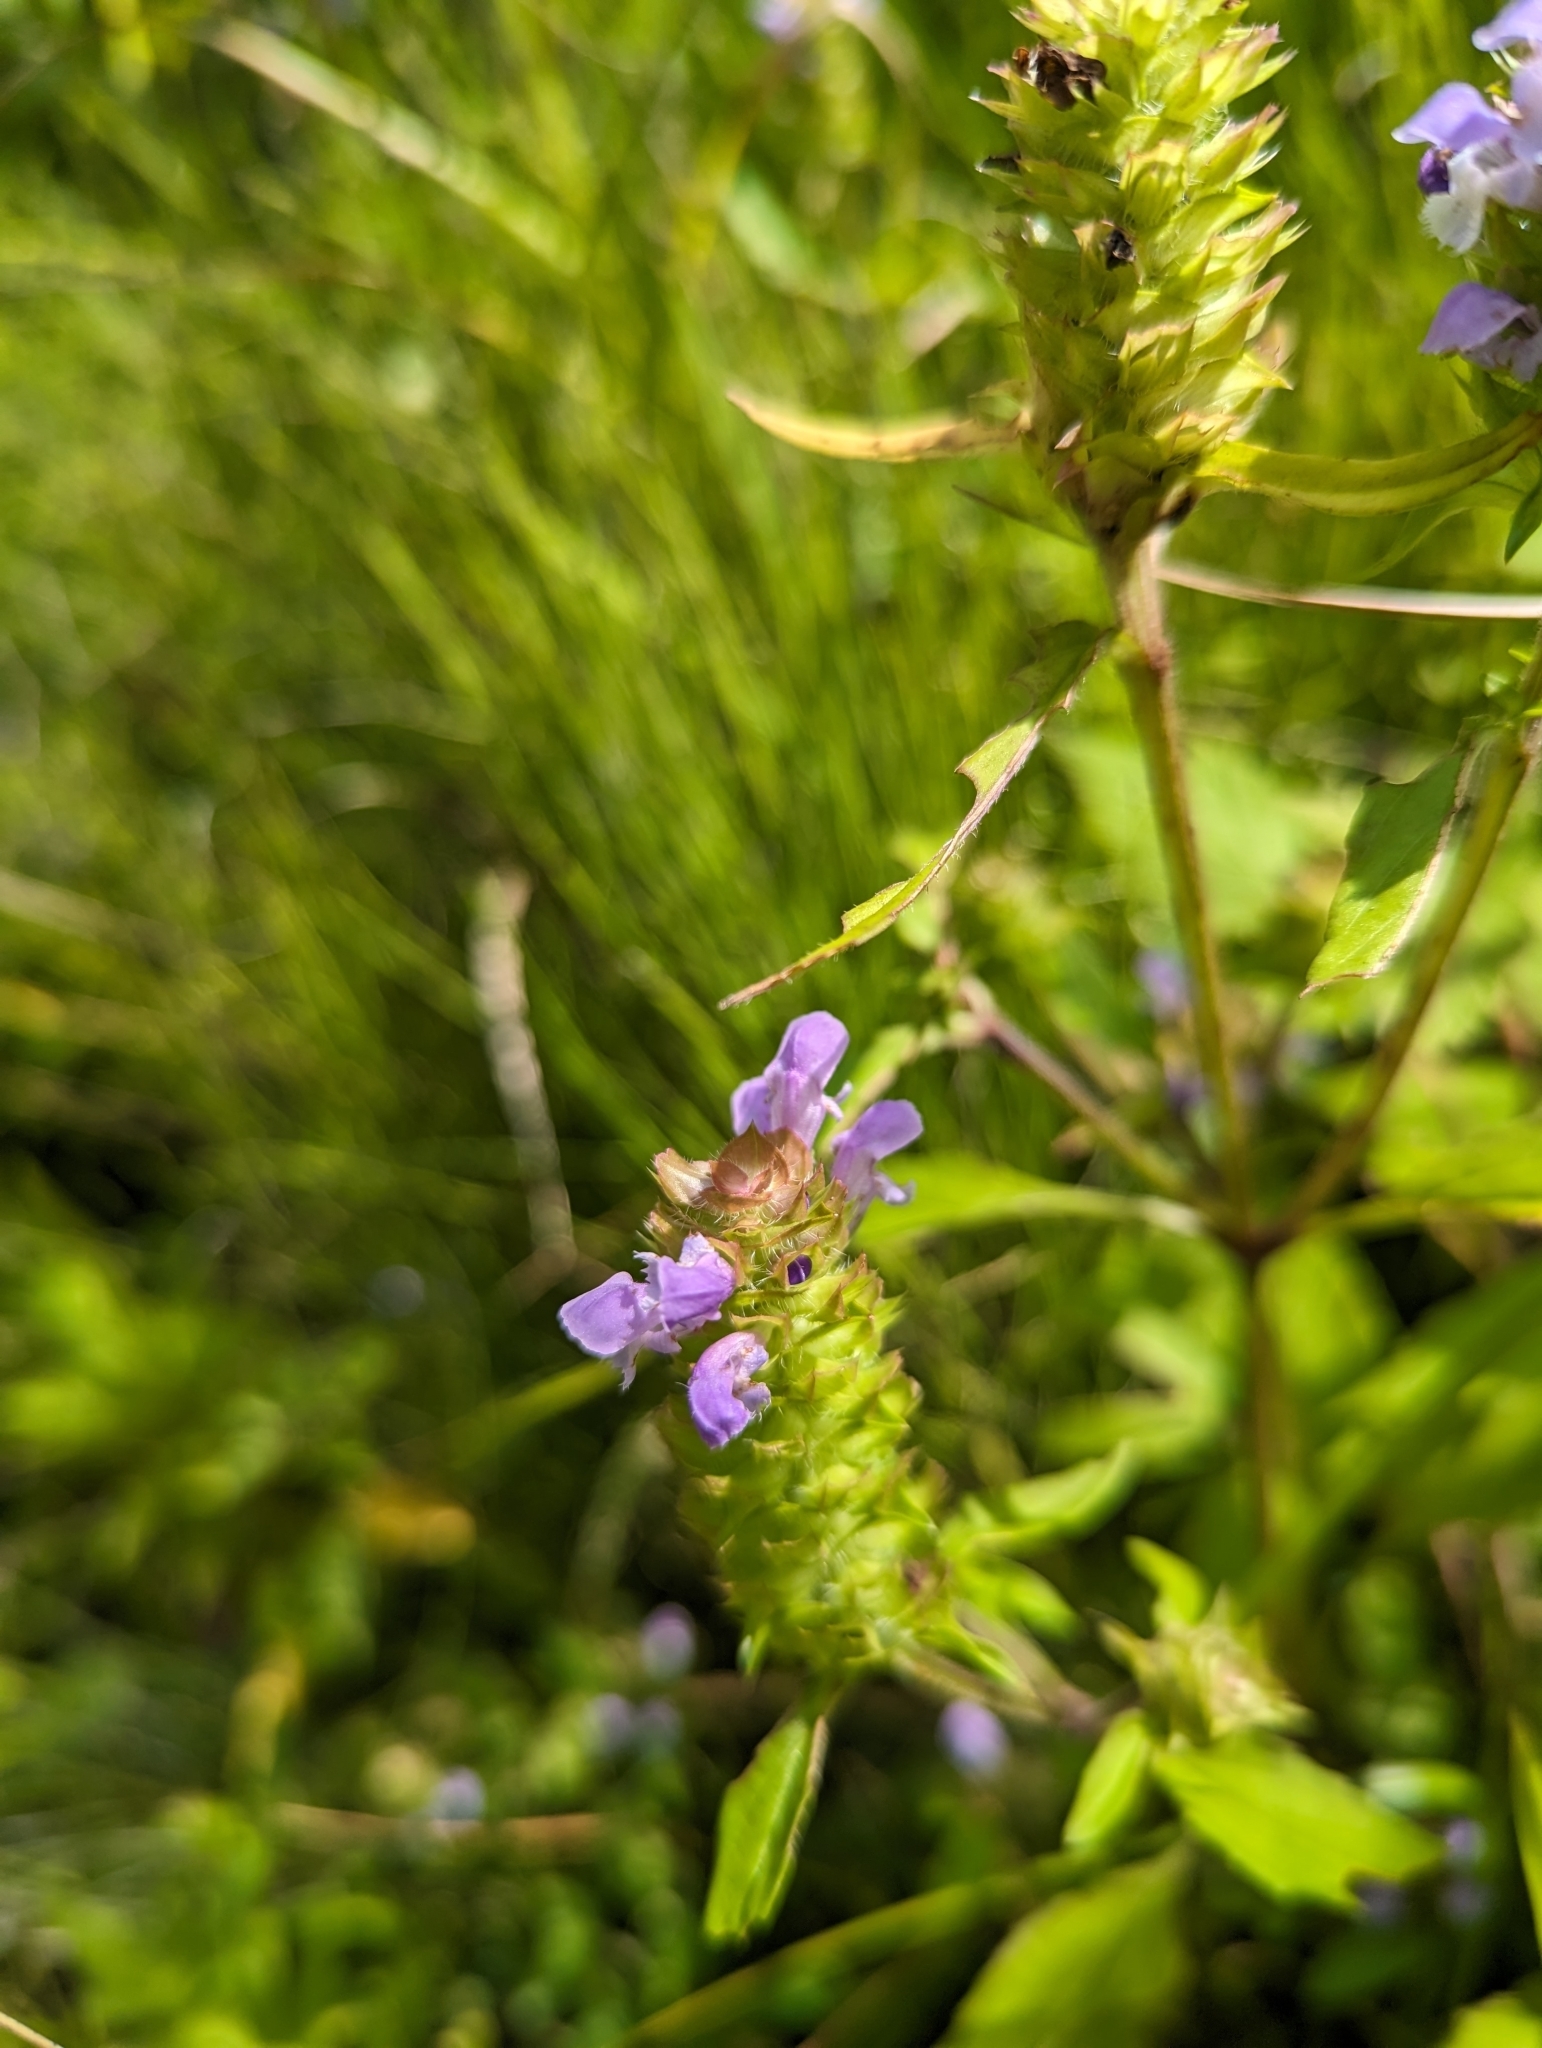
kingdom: Plantae
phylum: Tracheophyta
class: Magnoliopsida
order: Lamiales
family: Lamiaceae
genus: Prunella
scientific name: Prunella vulgaris
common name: Heal-all
